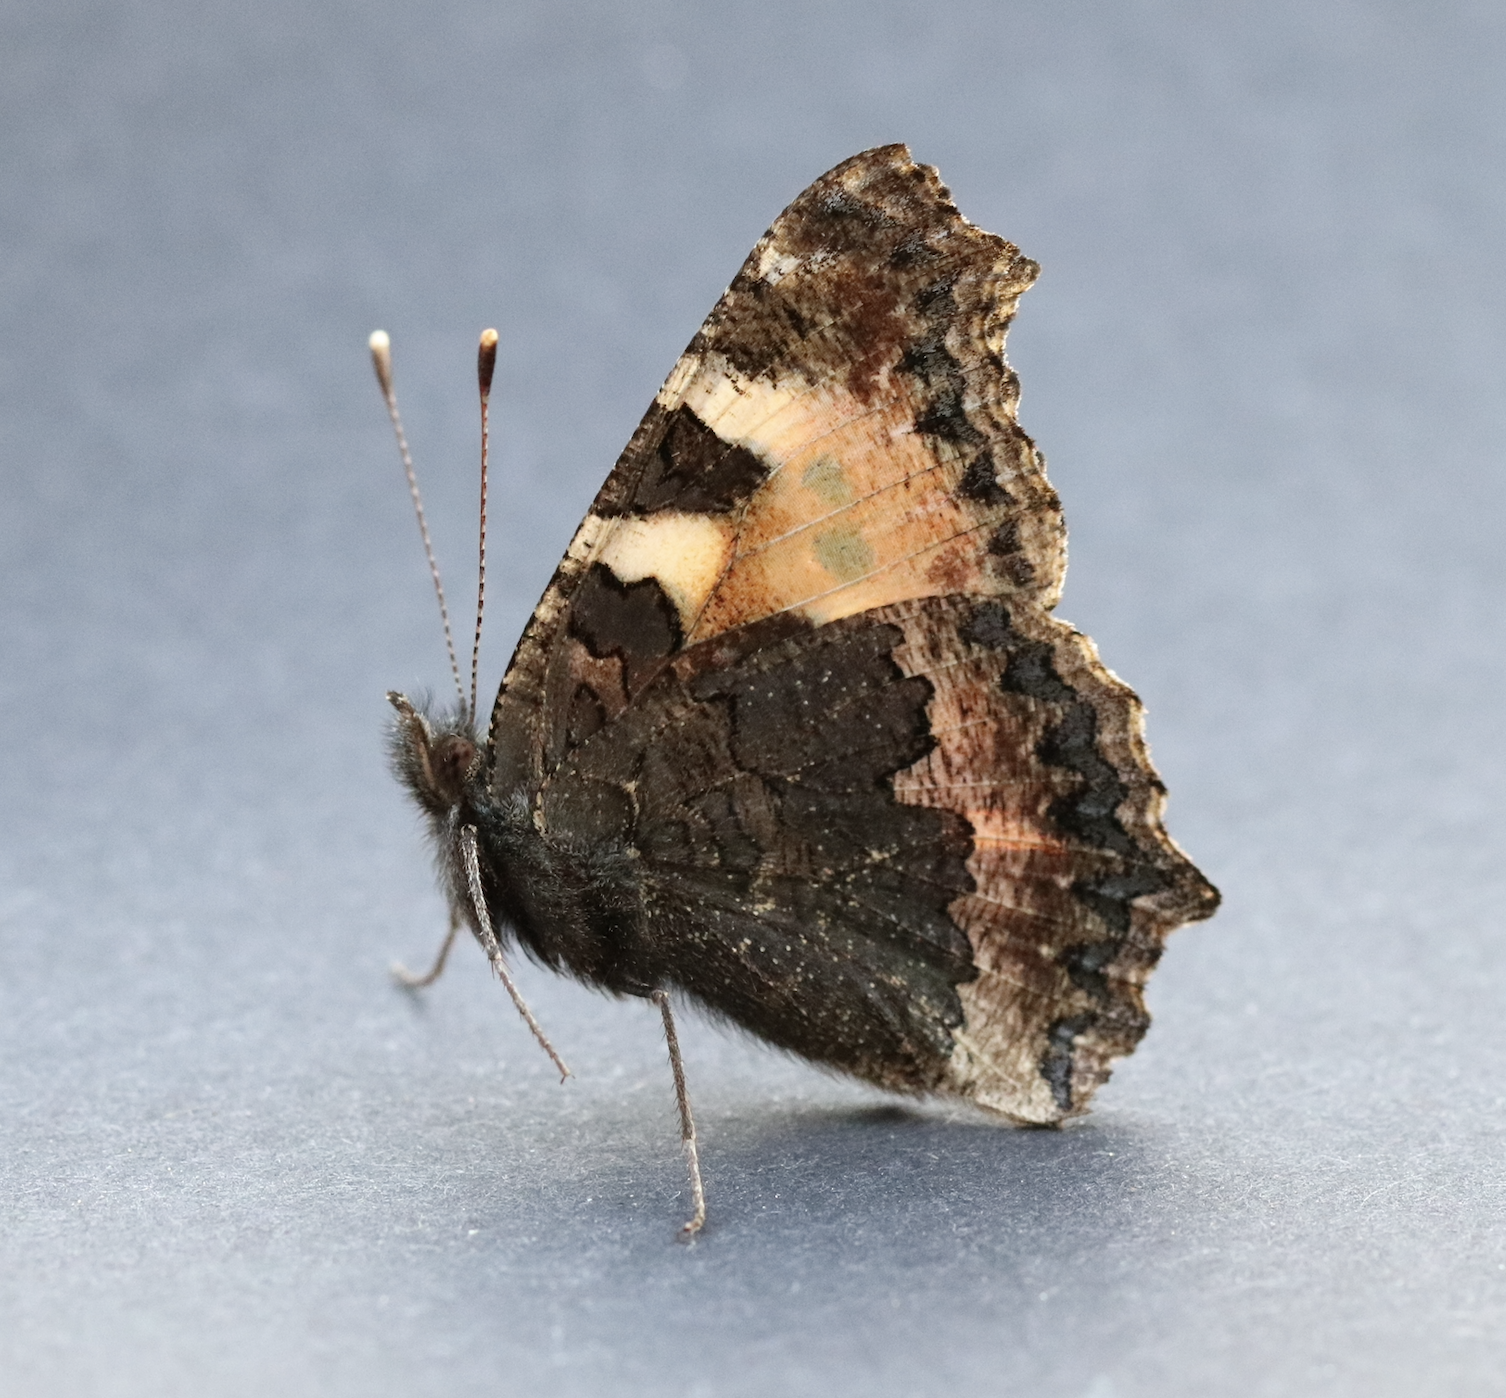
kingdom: Animalia
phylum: Arthropoda
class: Insecta
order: Lepidoptera
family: Nymphalidae
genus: Aglais
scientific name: Aglais urticae
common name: Small tortoiseshell
